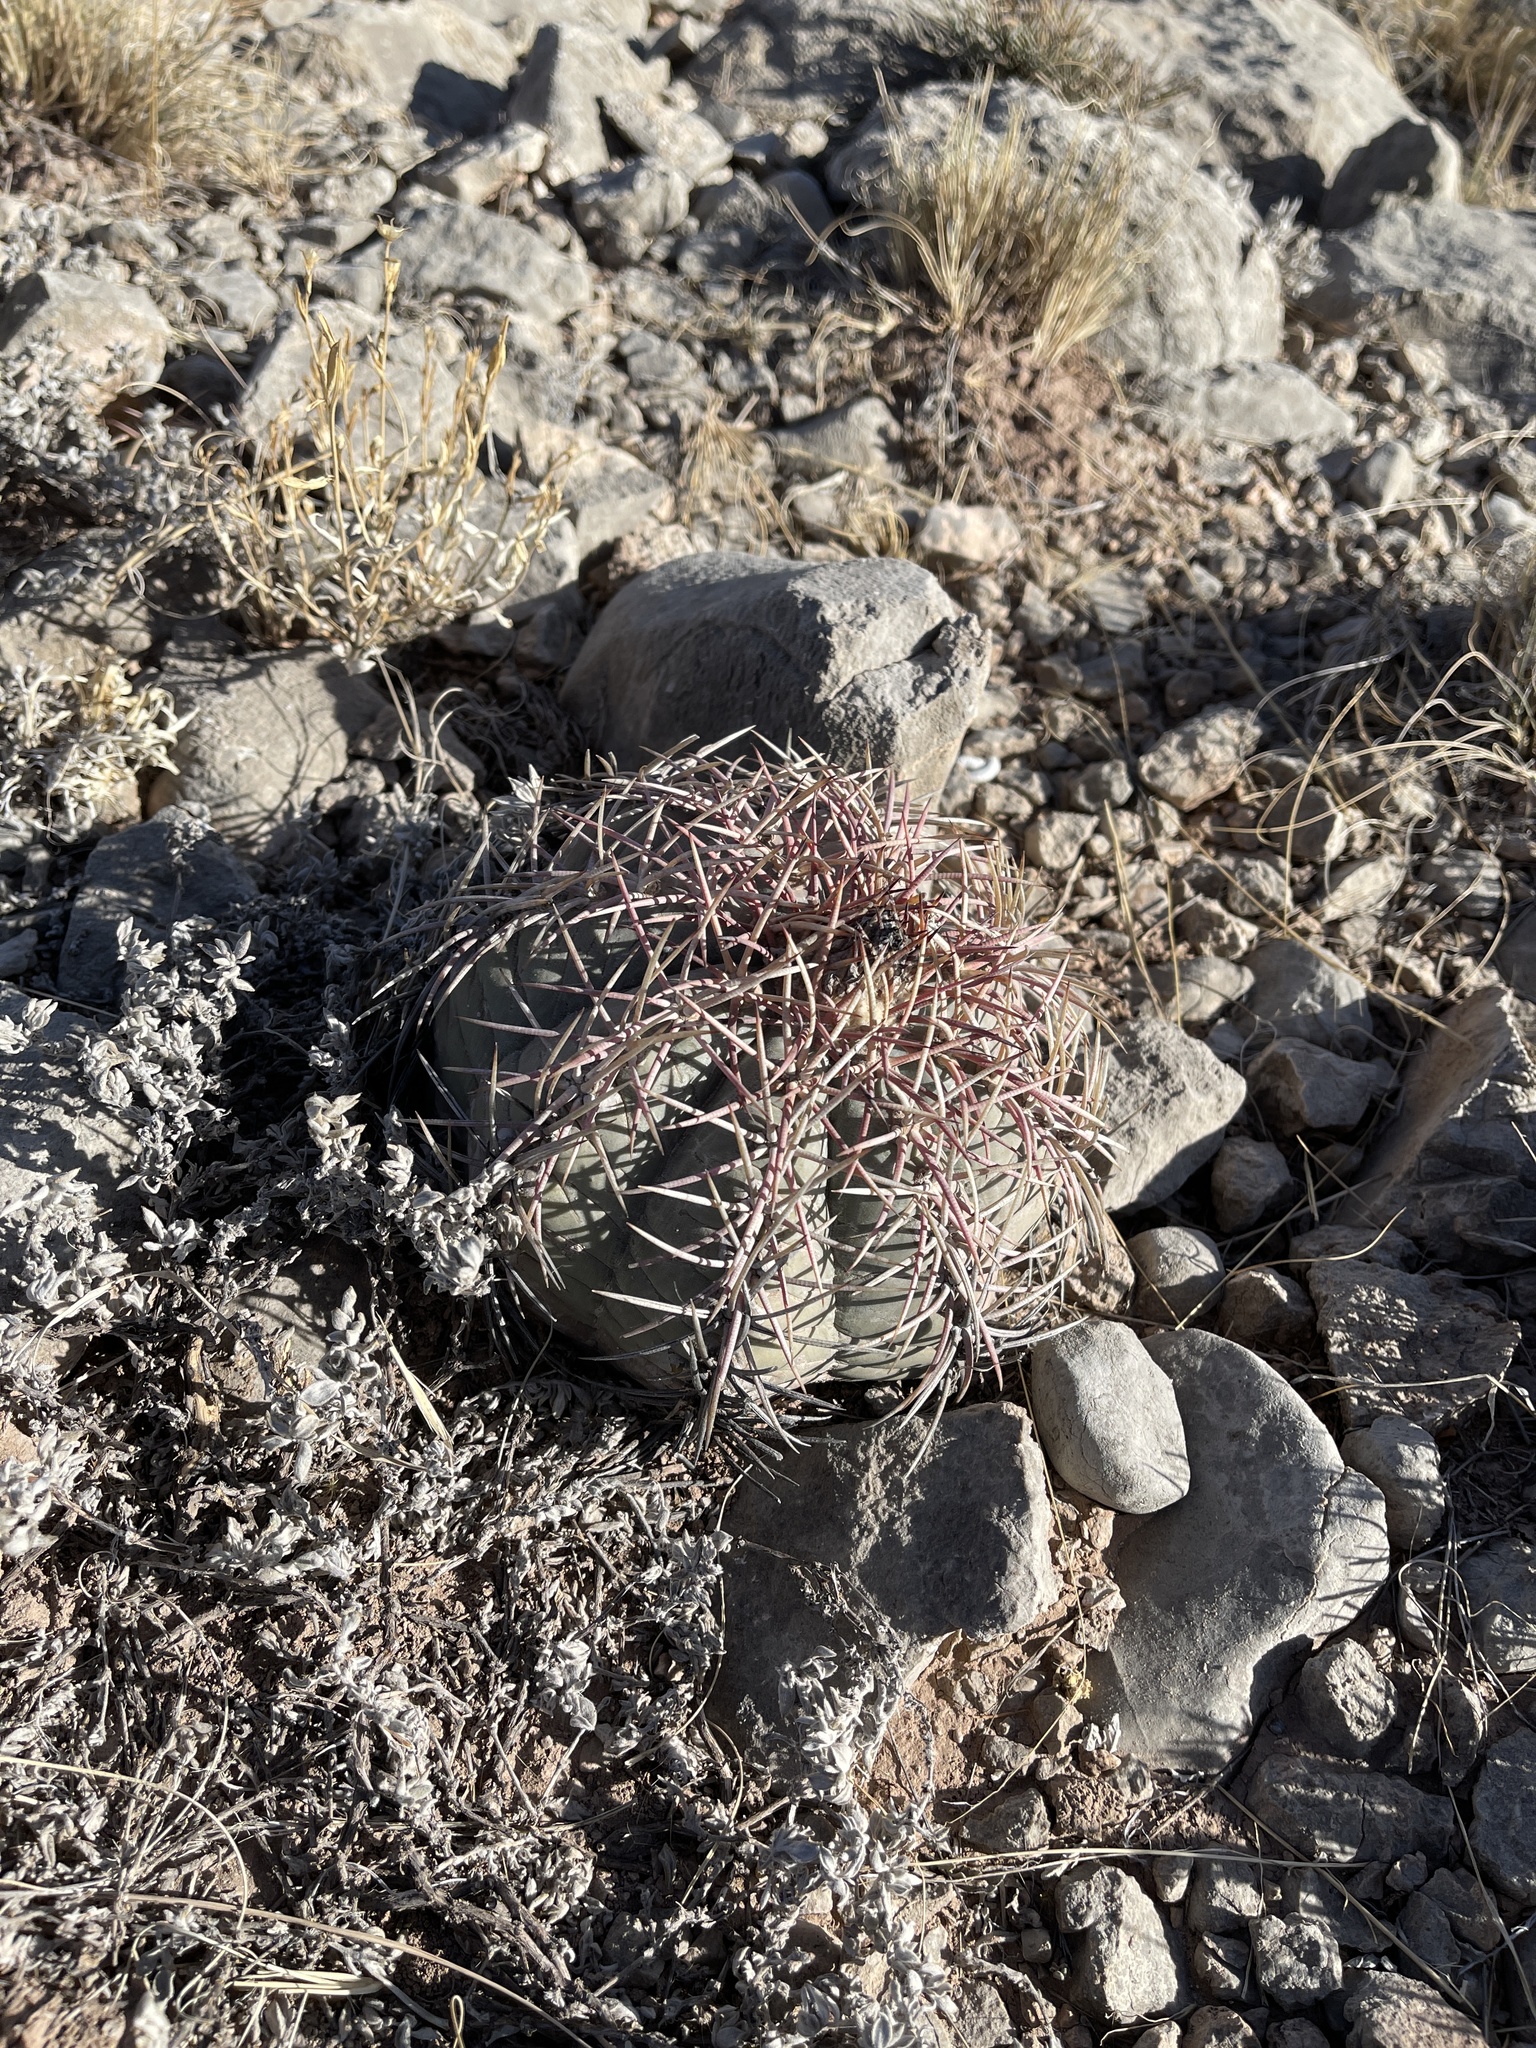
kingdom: Plantae
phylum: Tracheophyta
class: Magnoliopsida
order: Caryophyllales
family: Cactaceae
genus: Echinocactus
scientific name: Echinocactus horizonthalonius
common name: Devilshead
